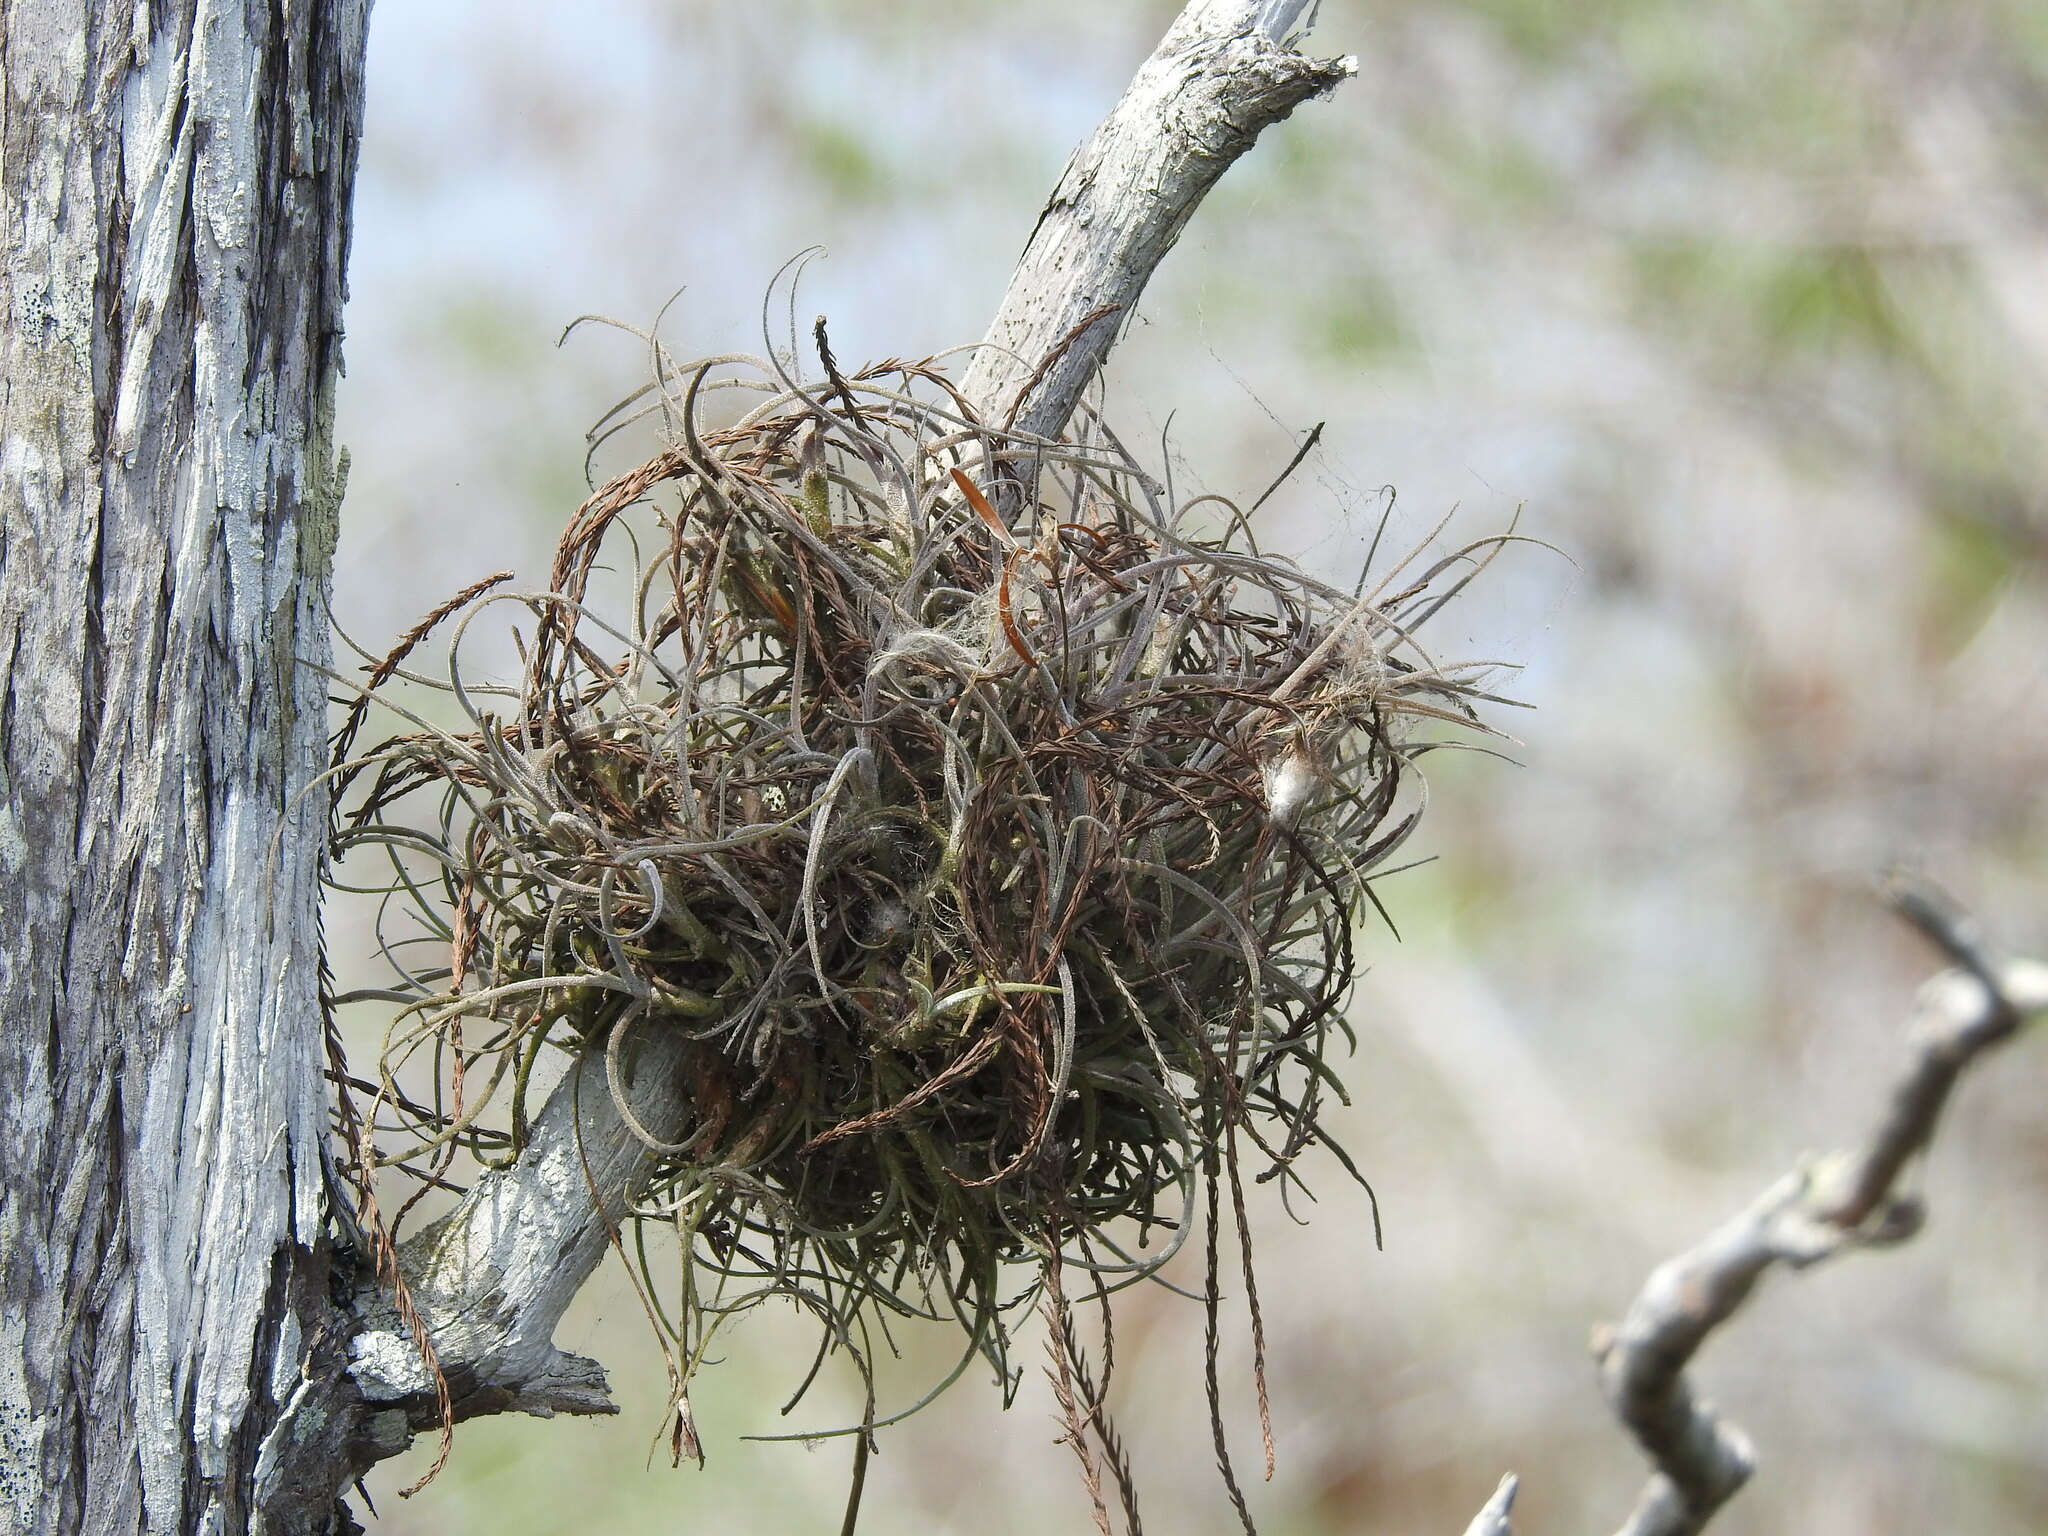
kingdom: Plantae
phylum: Tracheophyta
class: Liliopsida
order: Poales
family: Bromeliaceae
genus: Tillandsia
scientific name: Tillandsia recurvata
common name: Small ballmoss
